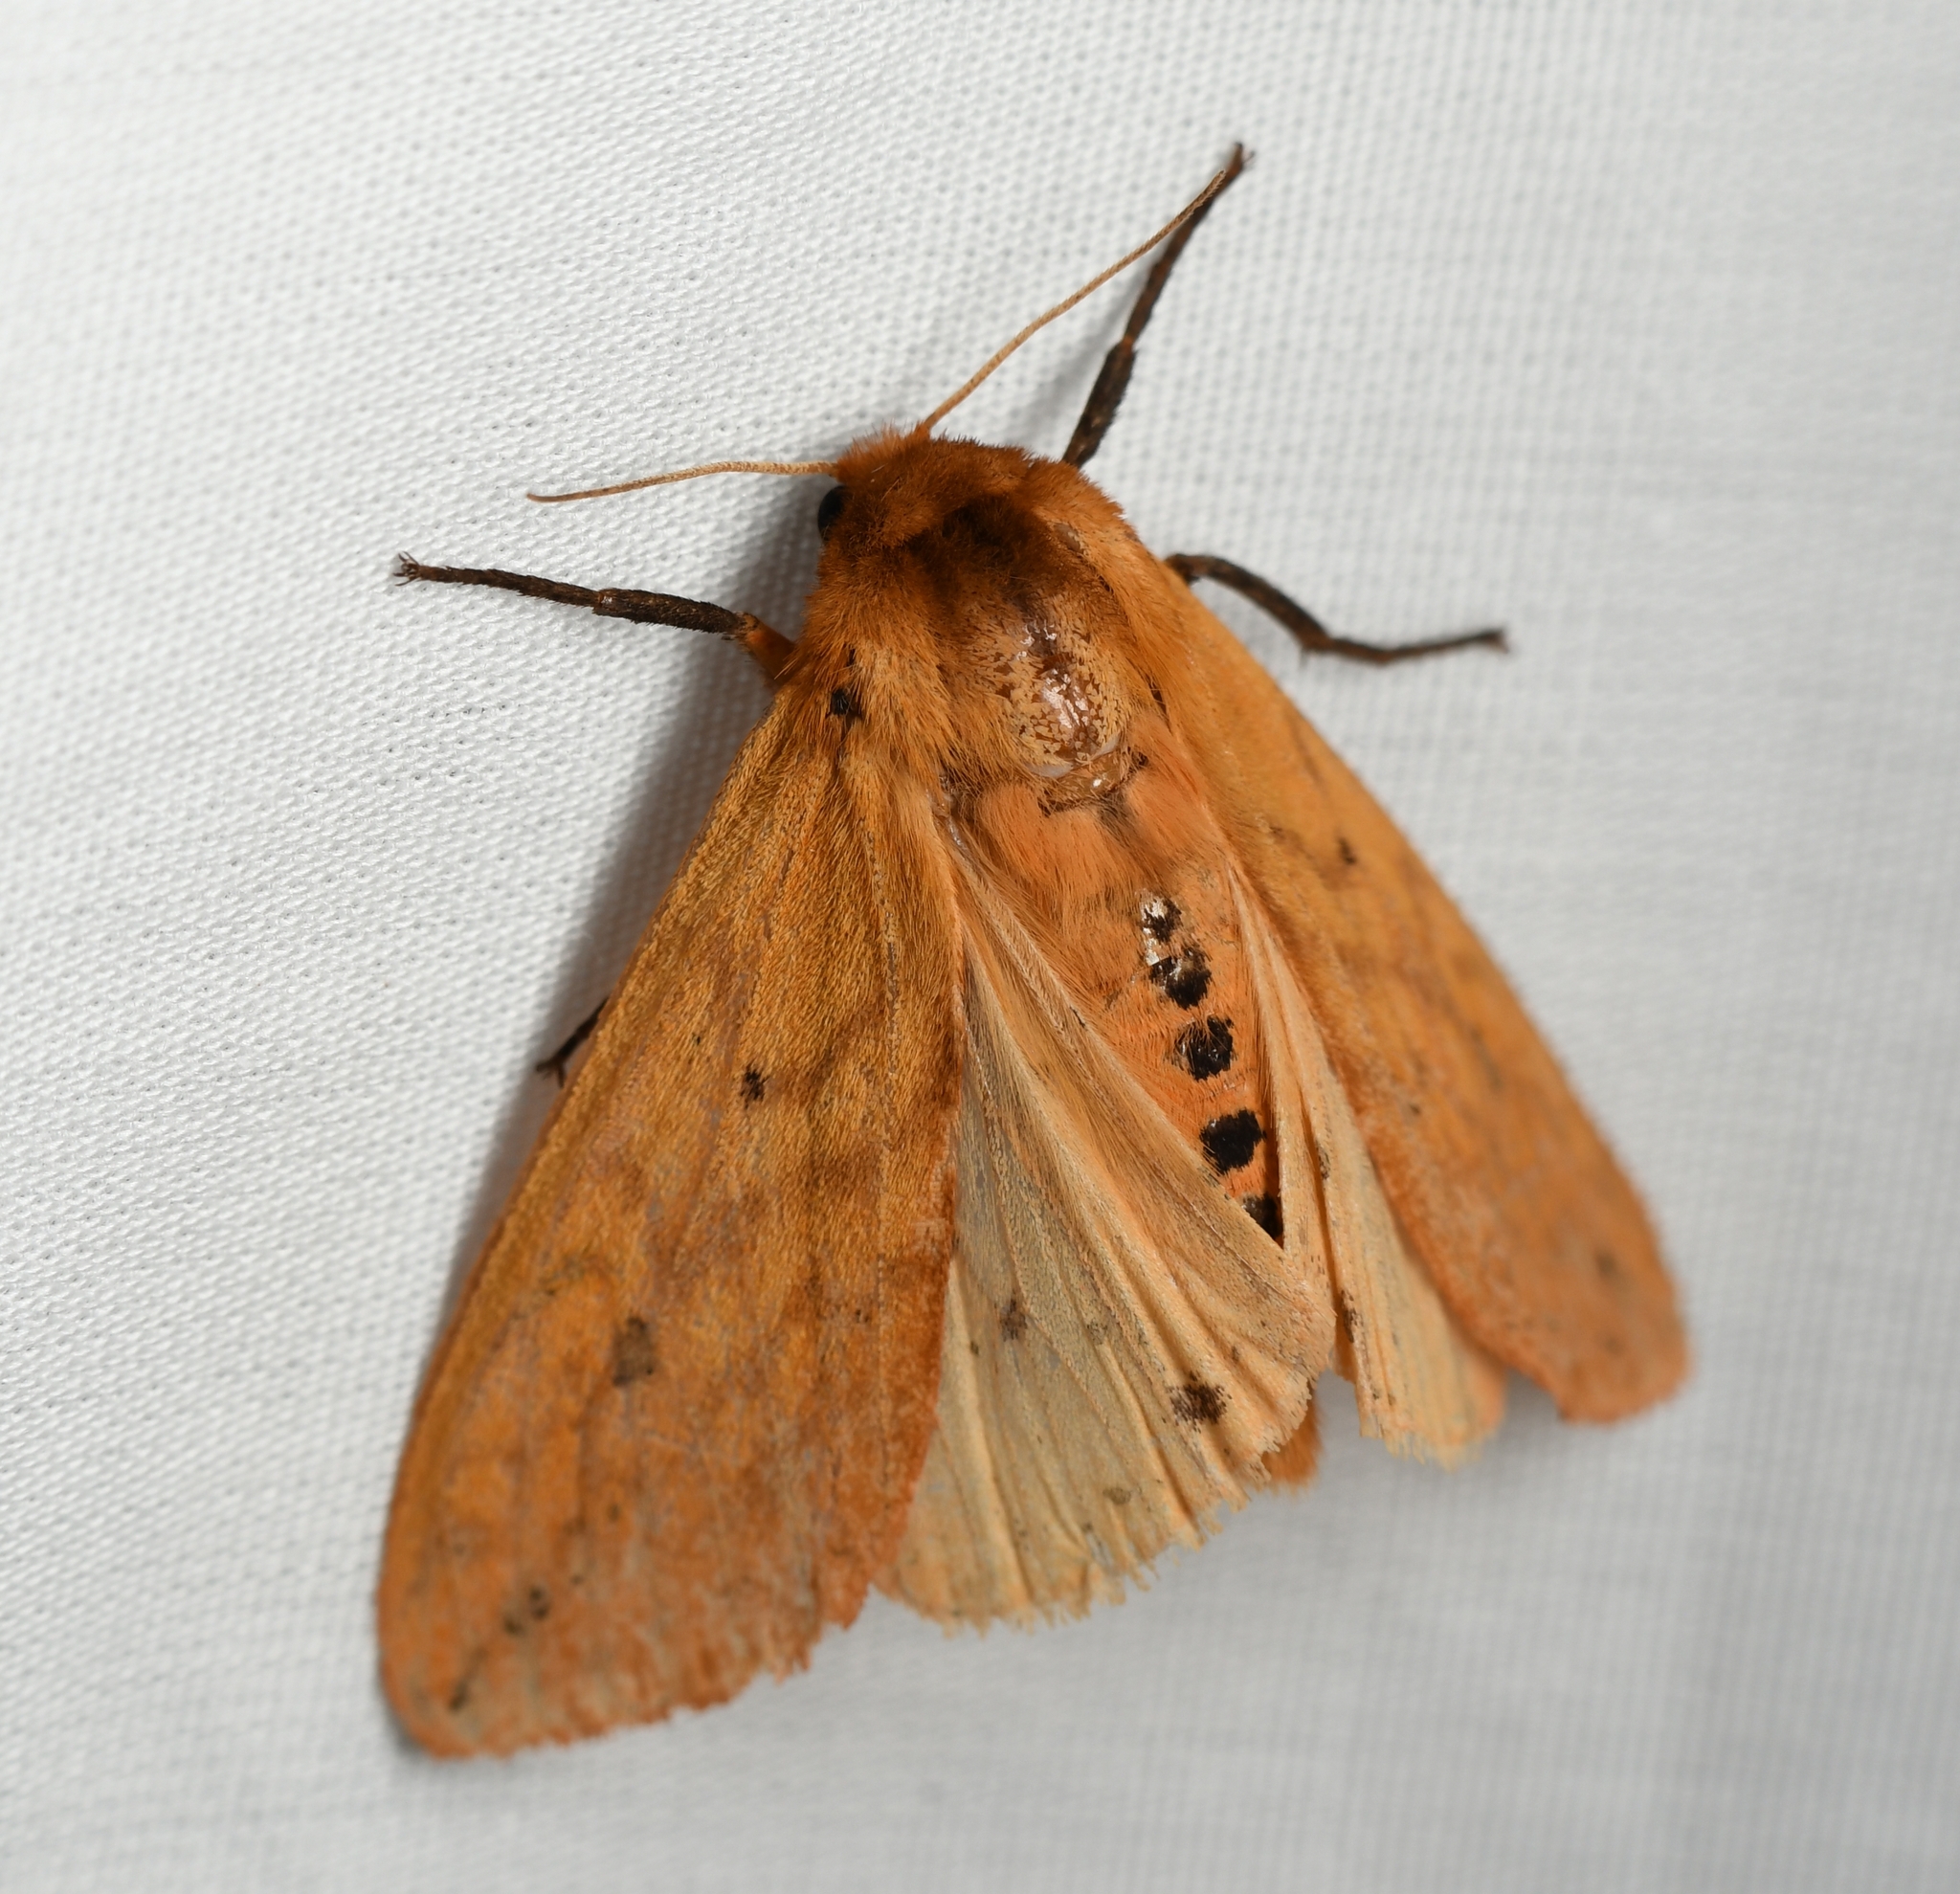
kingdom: Animalia
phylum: Arthropoda
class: Insecta
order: Lepidoptera
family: Erebidae
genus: Pyrrharctia
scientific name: Pyrrharctia isabella
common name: Isabella tiger moth
